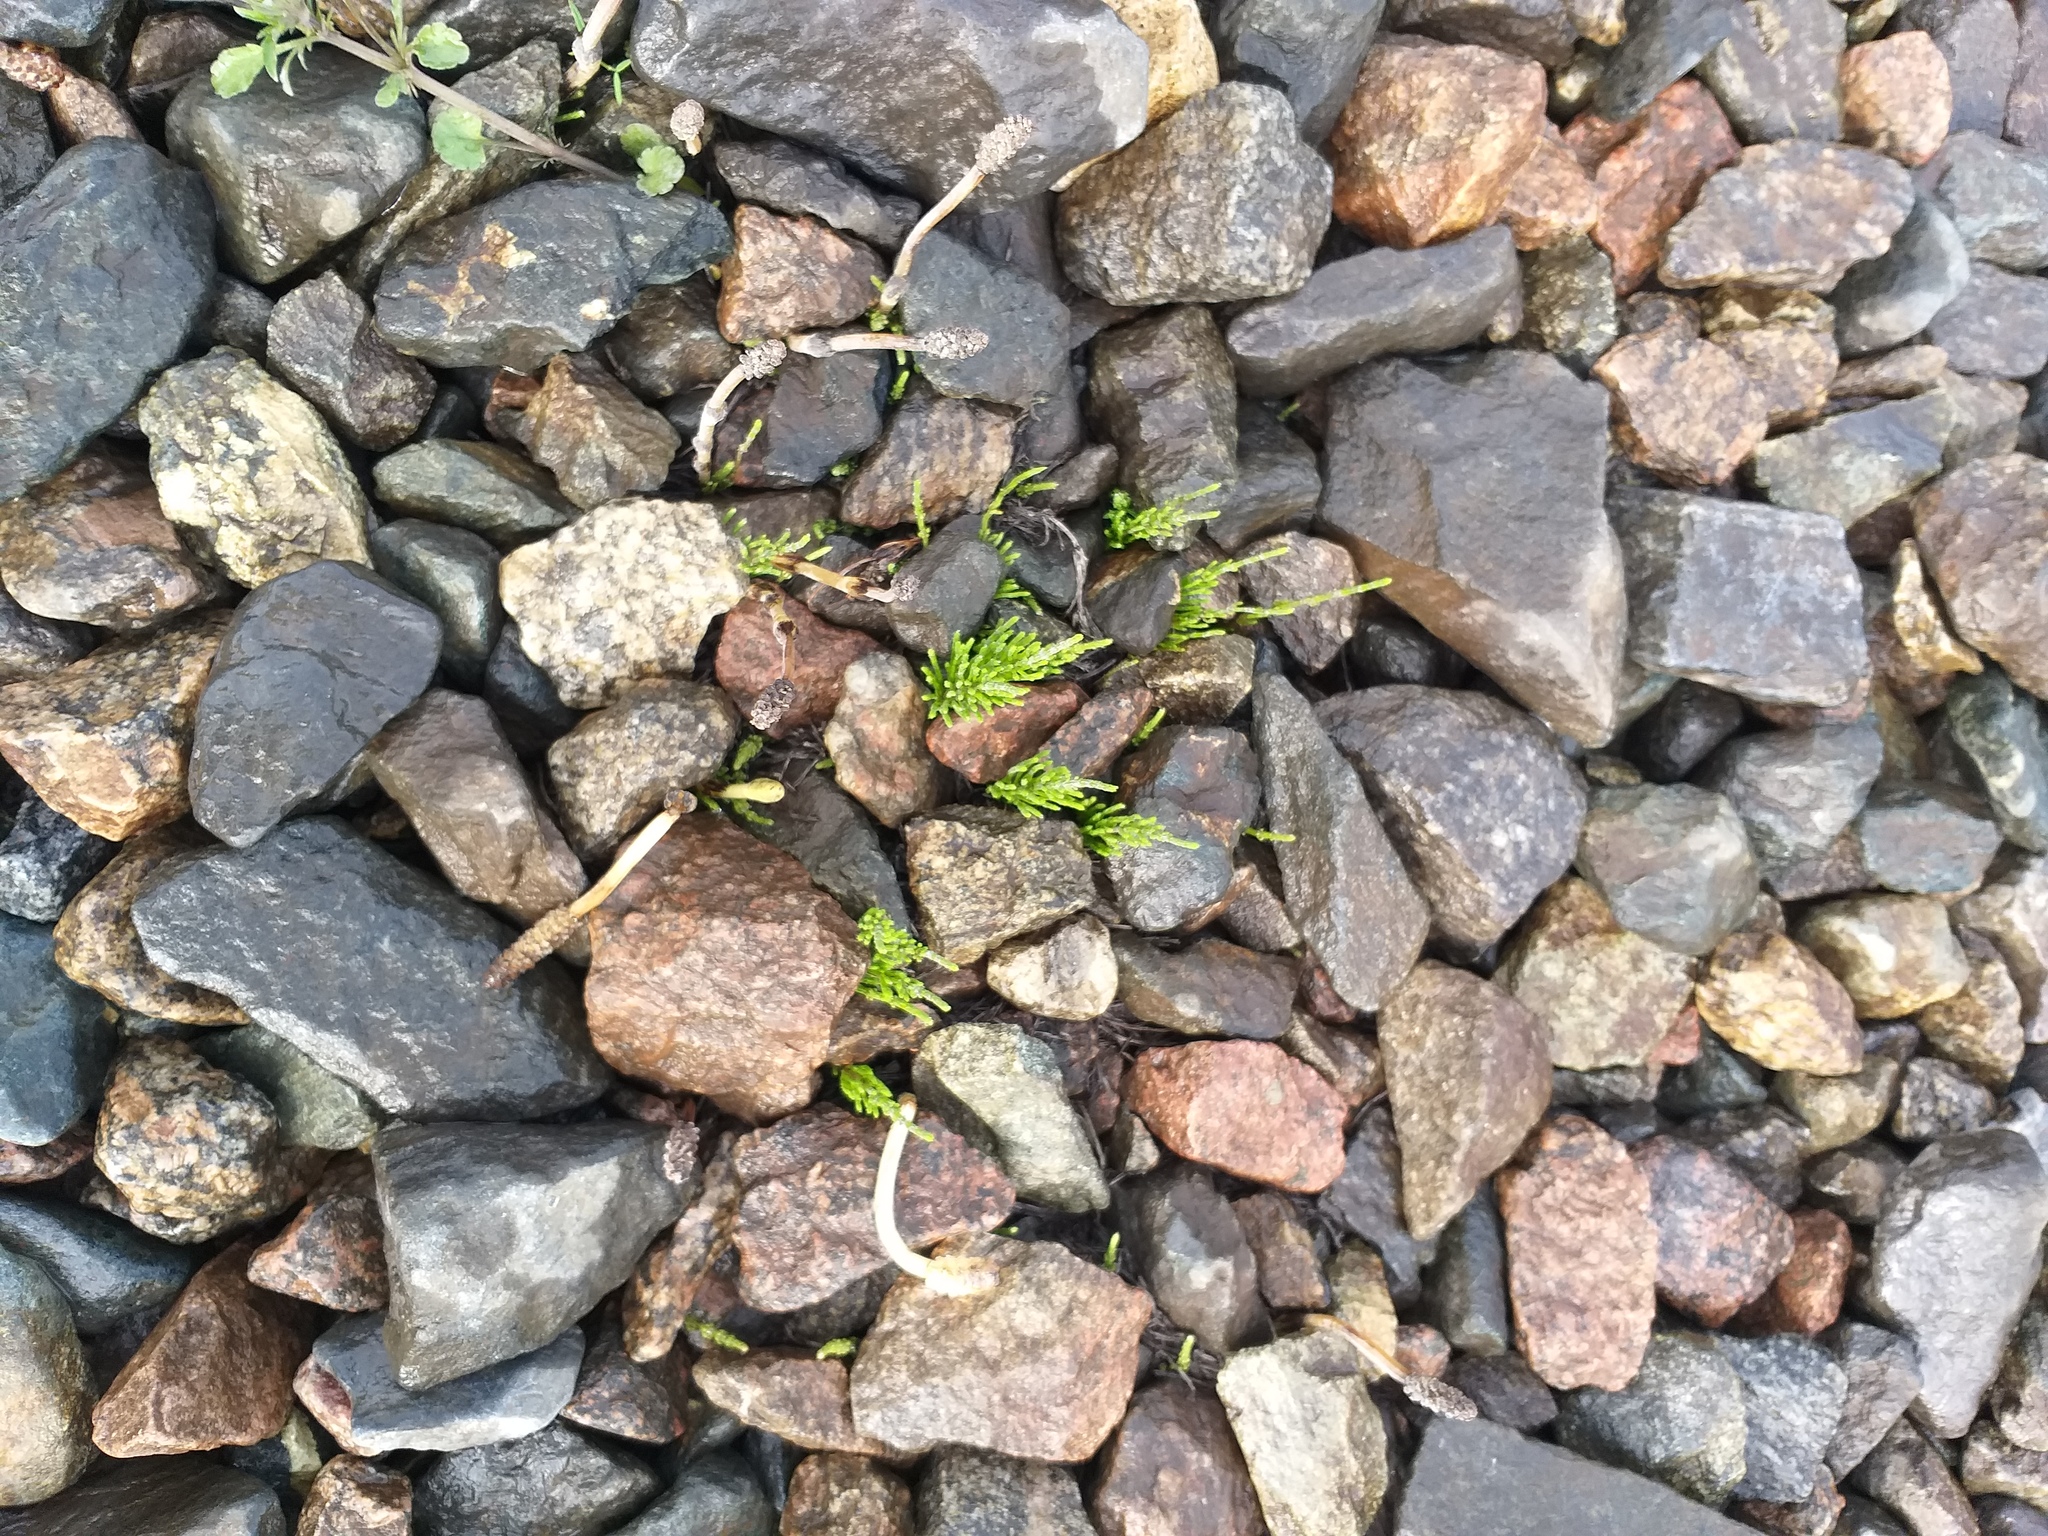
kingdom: Plantae
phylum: Tracheophyta
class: Polypodiopsida
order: Equisetales
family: Equisetaceae
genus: Equisetum
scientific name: Equisetum arvense
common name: Field horsetail
